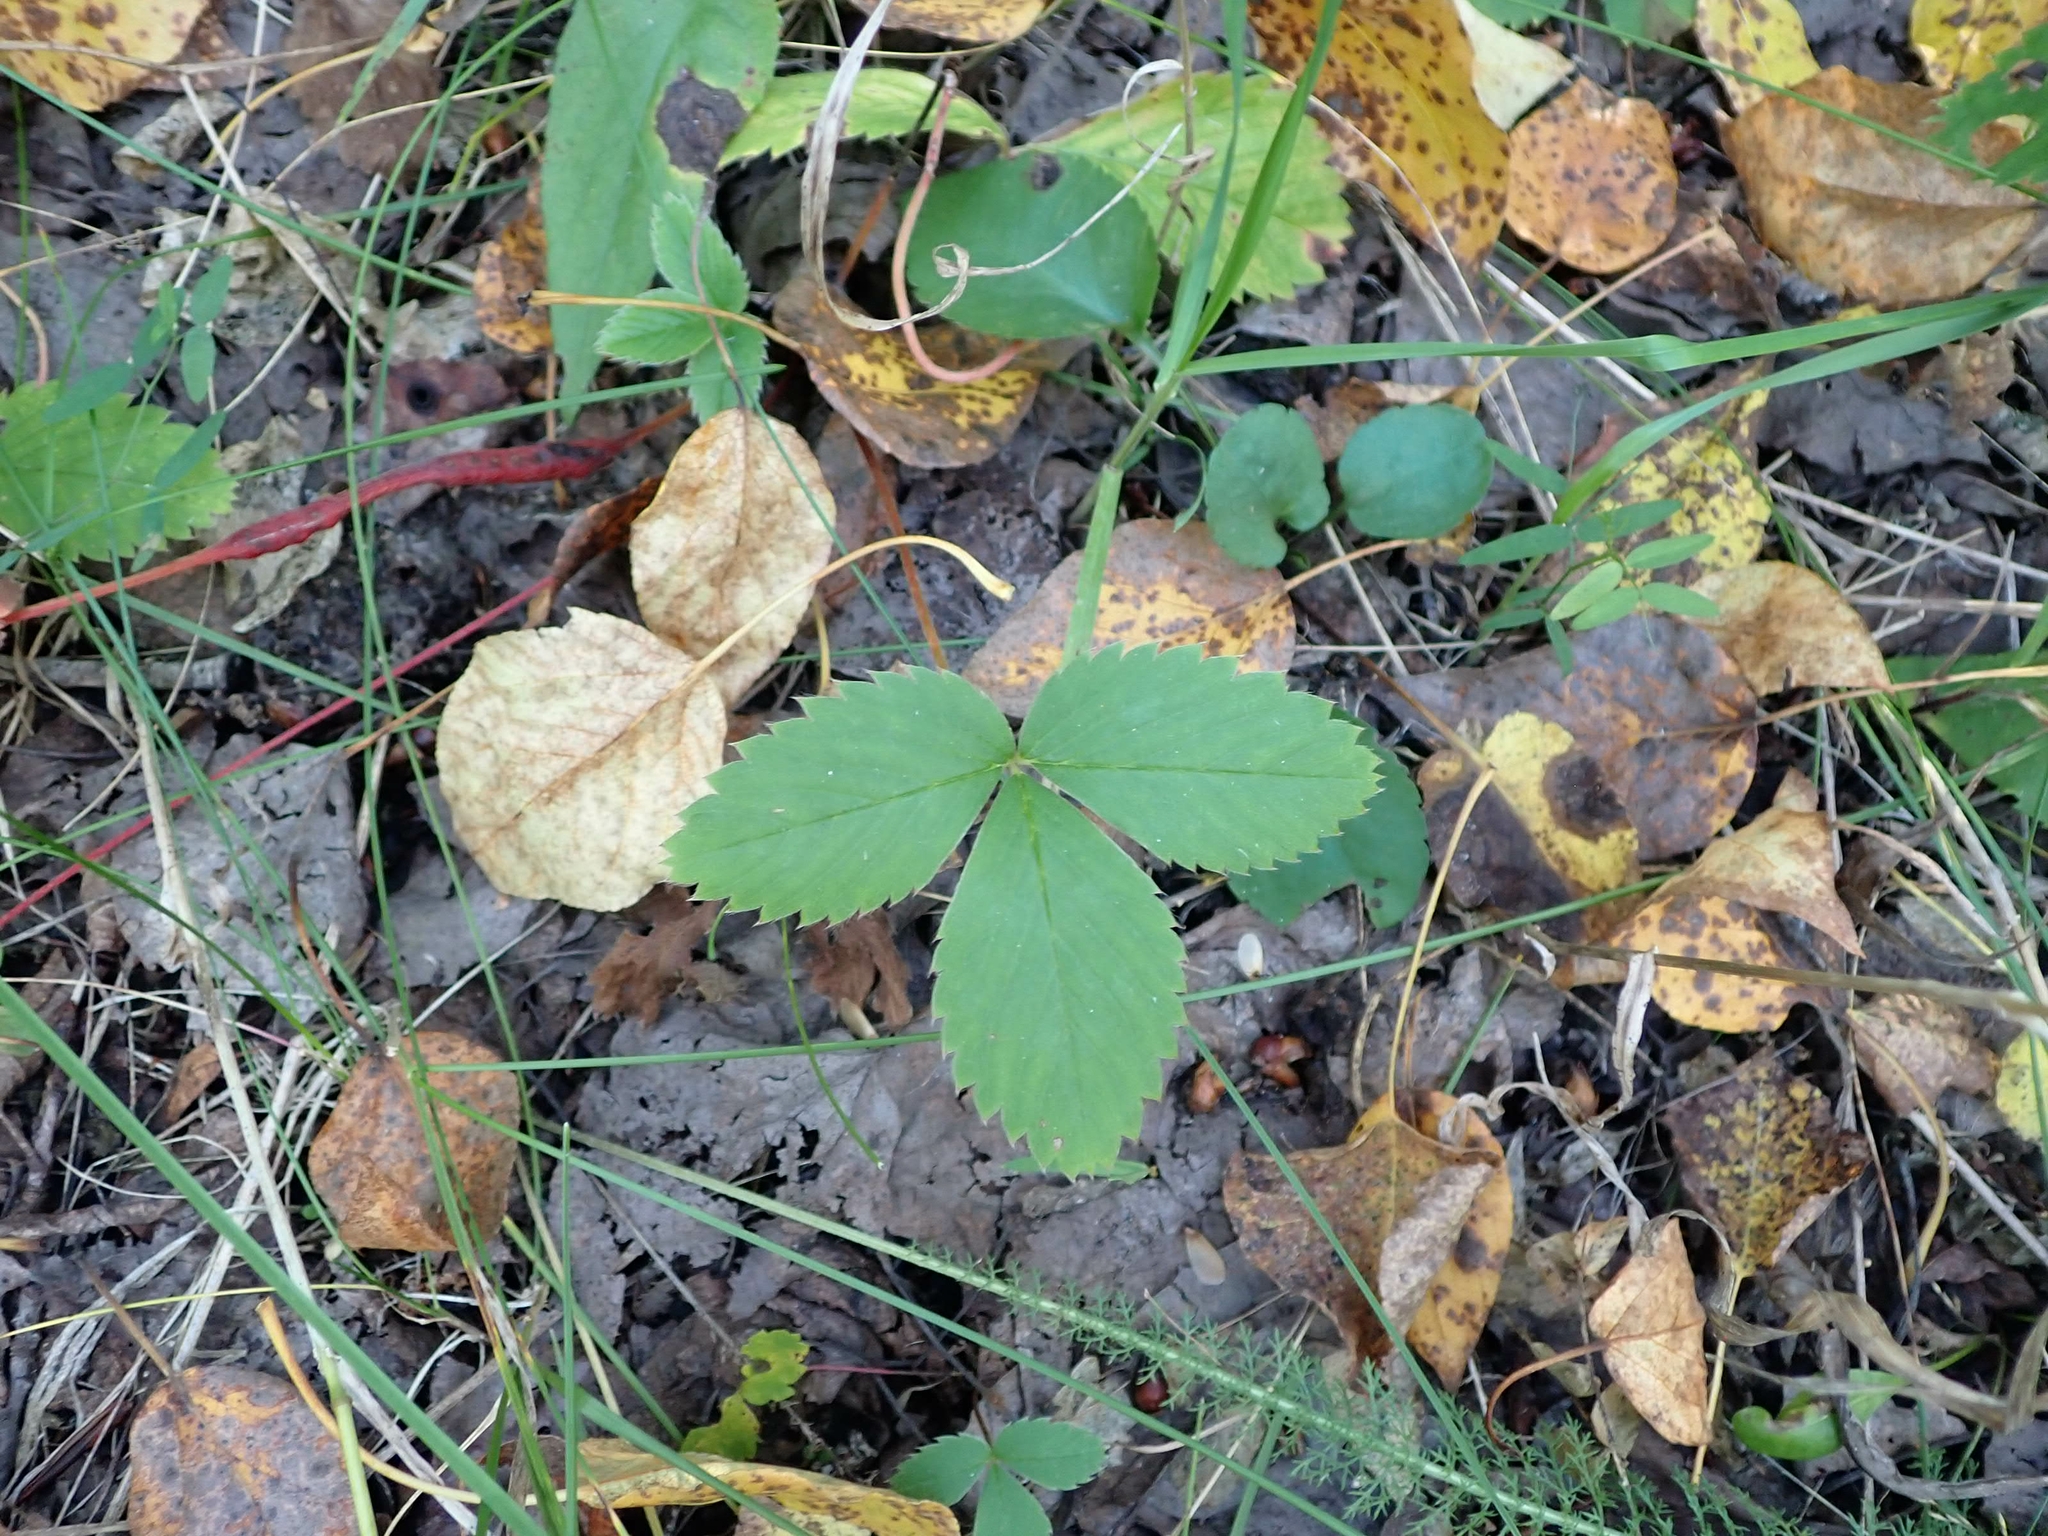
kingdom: Plantae
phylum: Tracheophyta
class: Magnoliopsida
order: Rosales
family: Rosaceae
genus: Fragaria
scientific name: Fragaria virginiana
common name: Thickleaved wild strawberry
